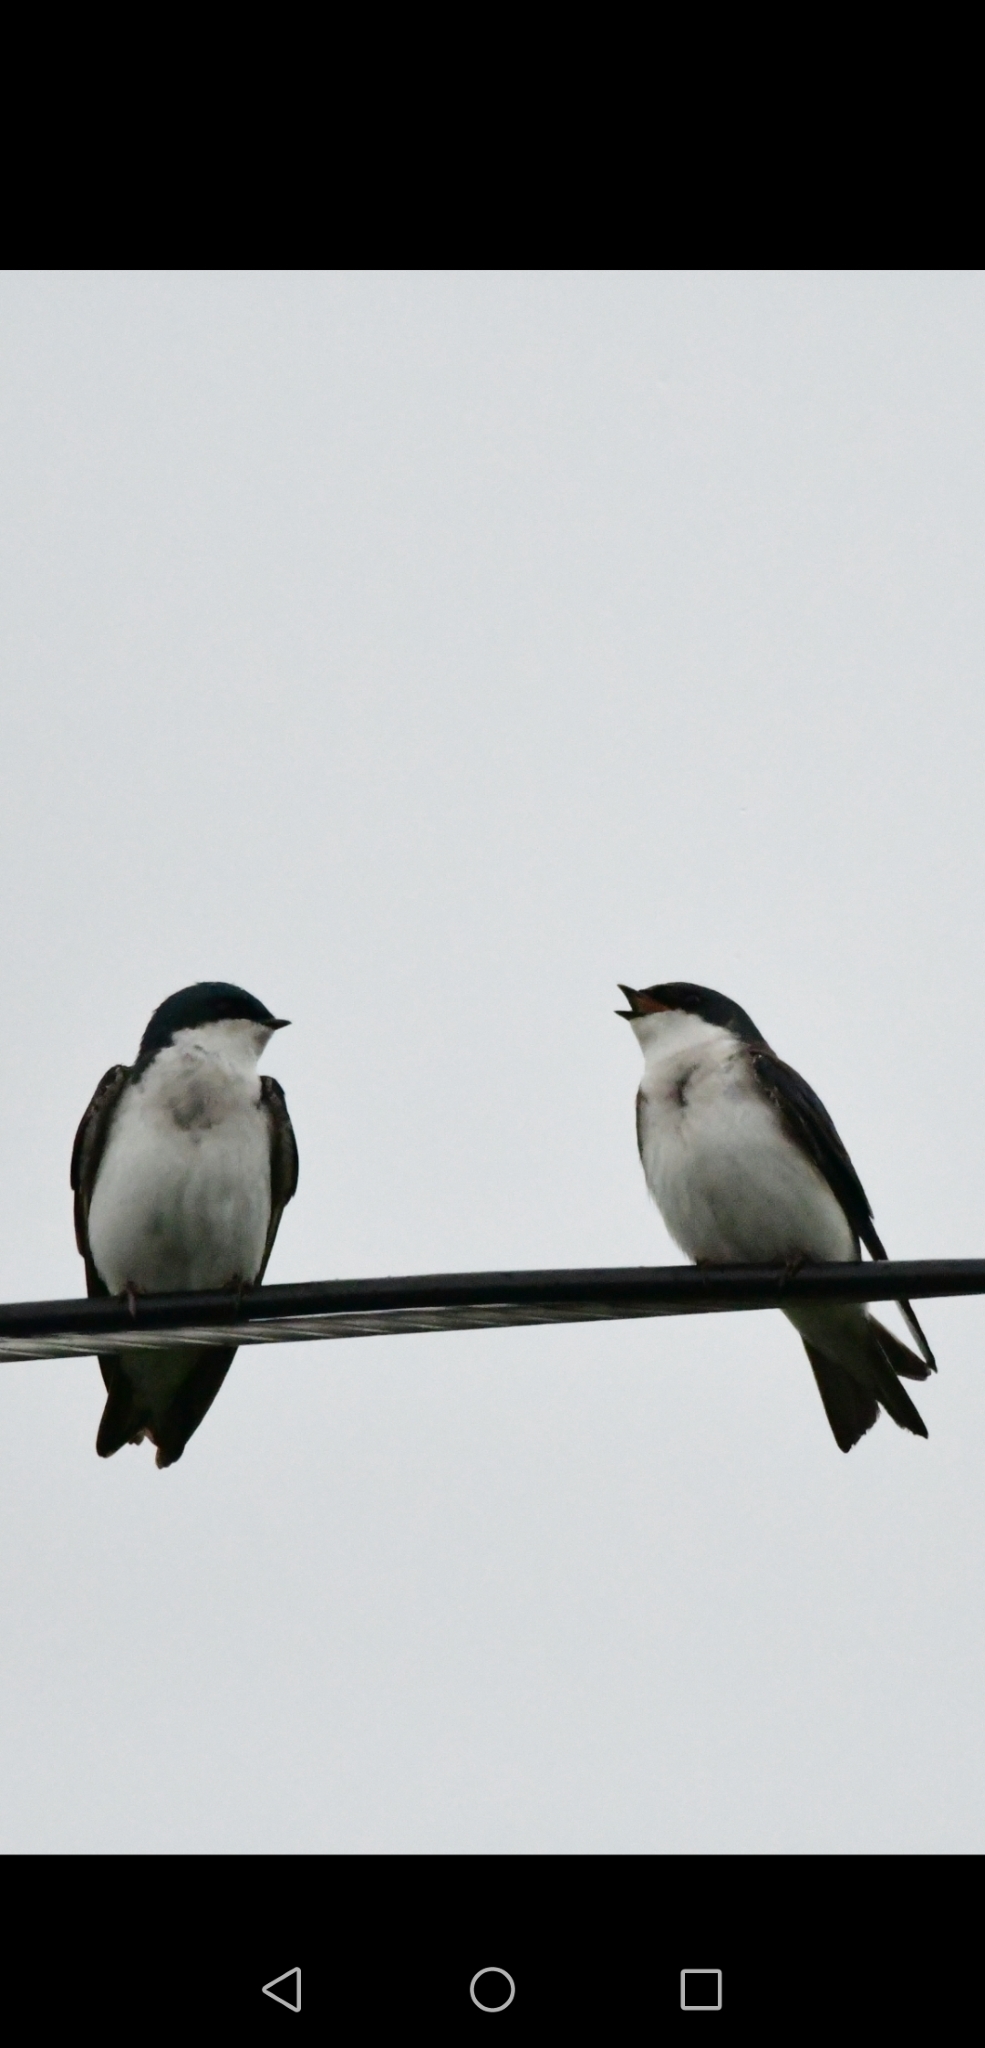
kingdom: Animalia
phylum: Chordata
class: Aves
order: Passeriformes
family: Hirundinidae
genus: Tachycineta
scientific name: Tachycineta bicolor
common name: Tree swallow
